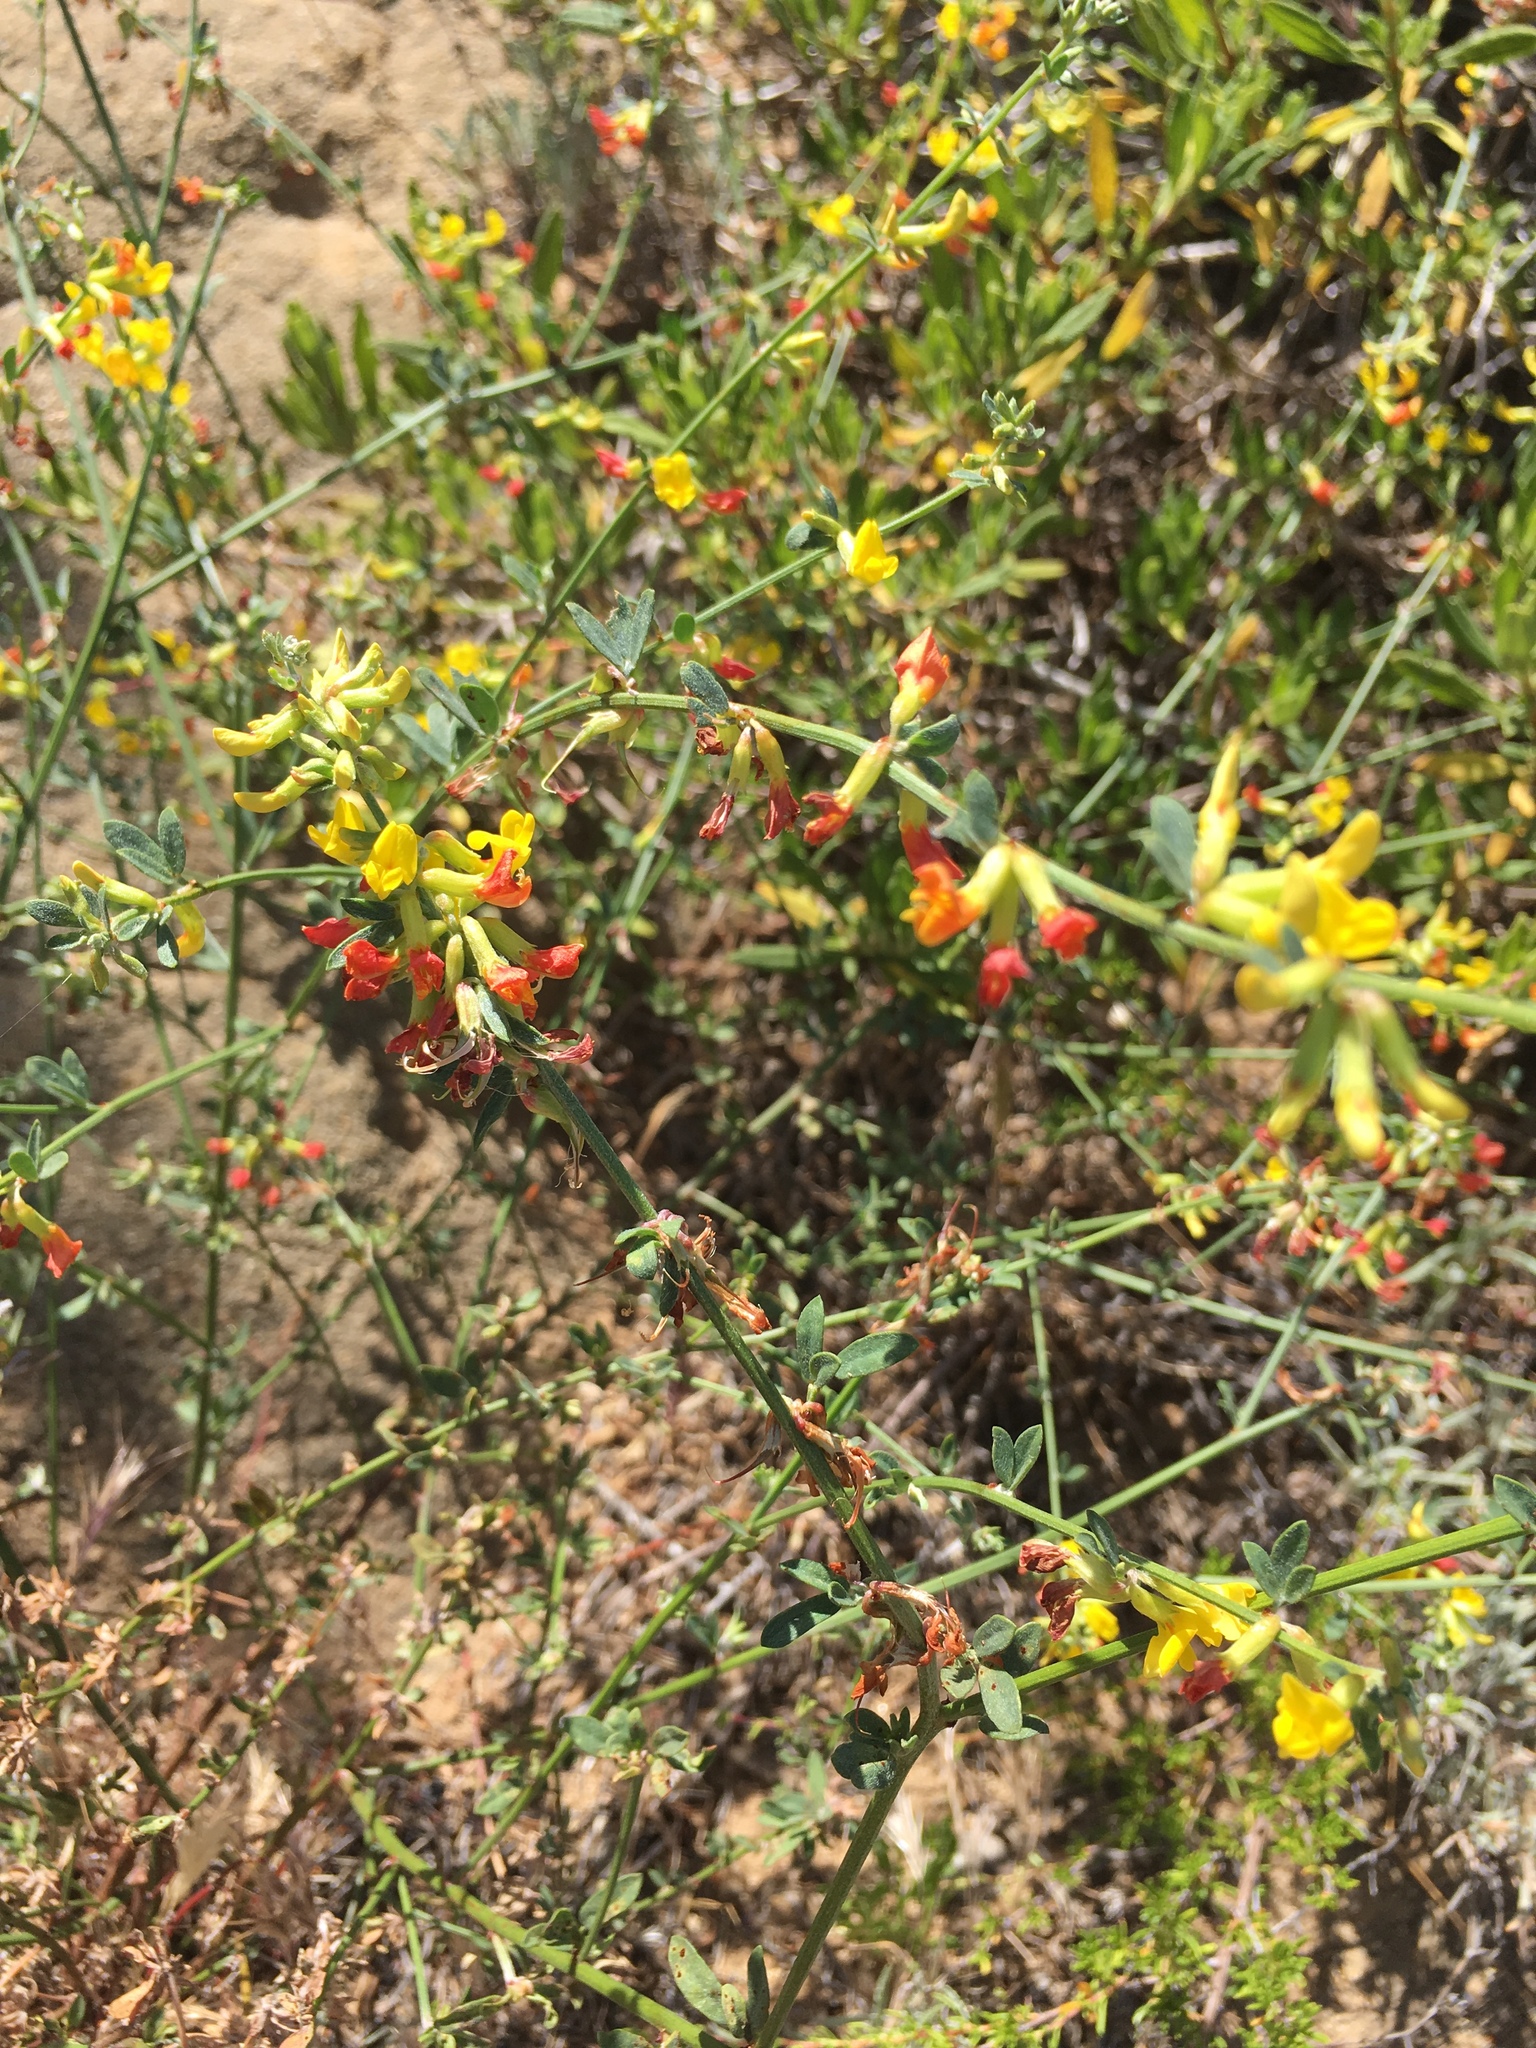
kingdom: Plantae
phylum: Tracheophyta
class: Magnoliopsida
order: Fabales
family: Fabaceae
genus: Acmispon
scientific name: Acmispon glaber
